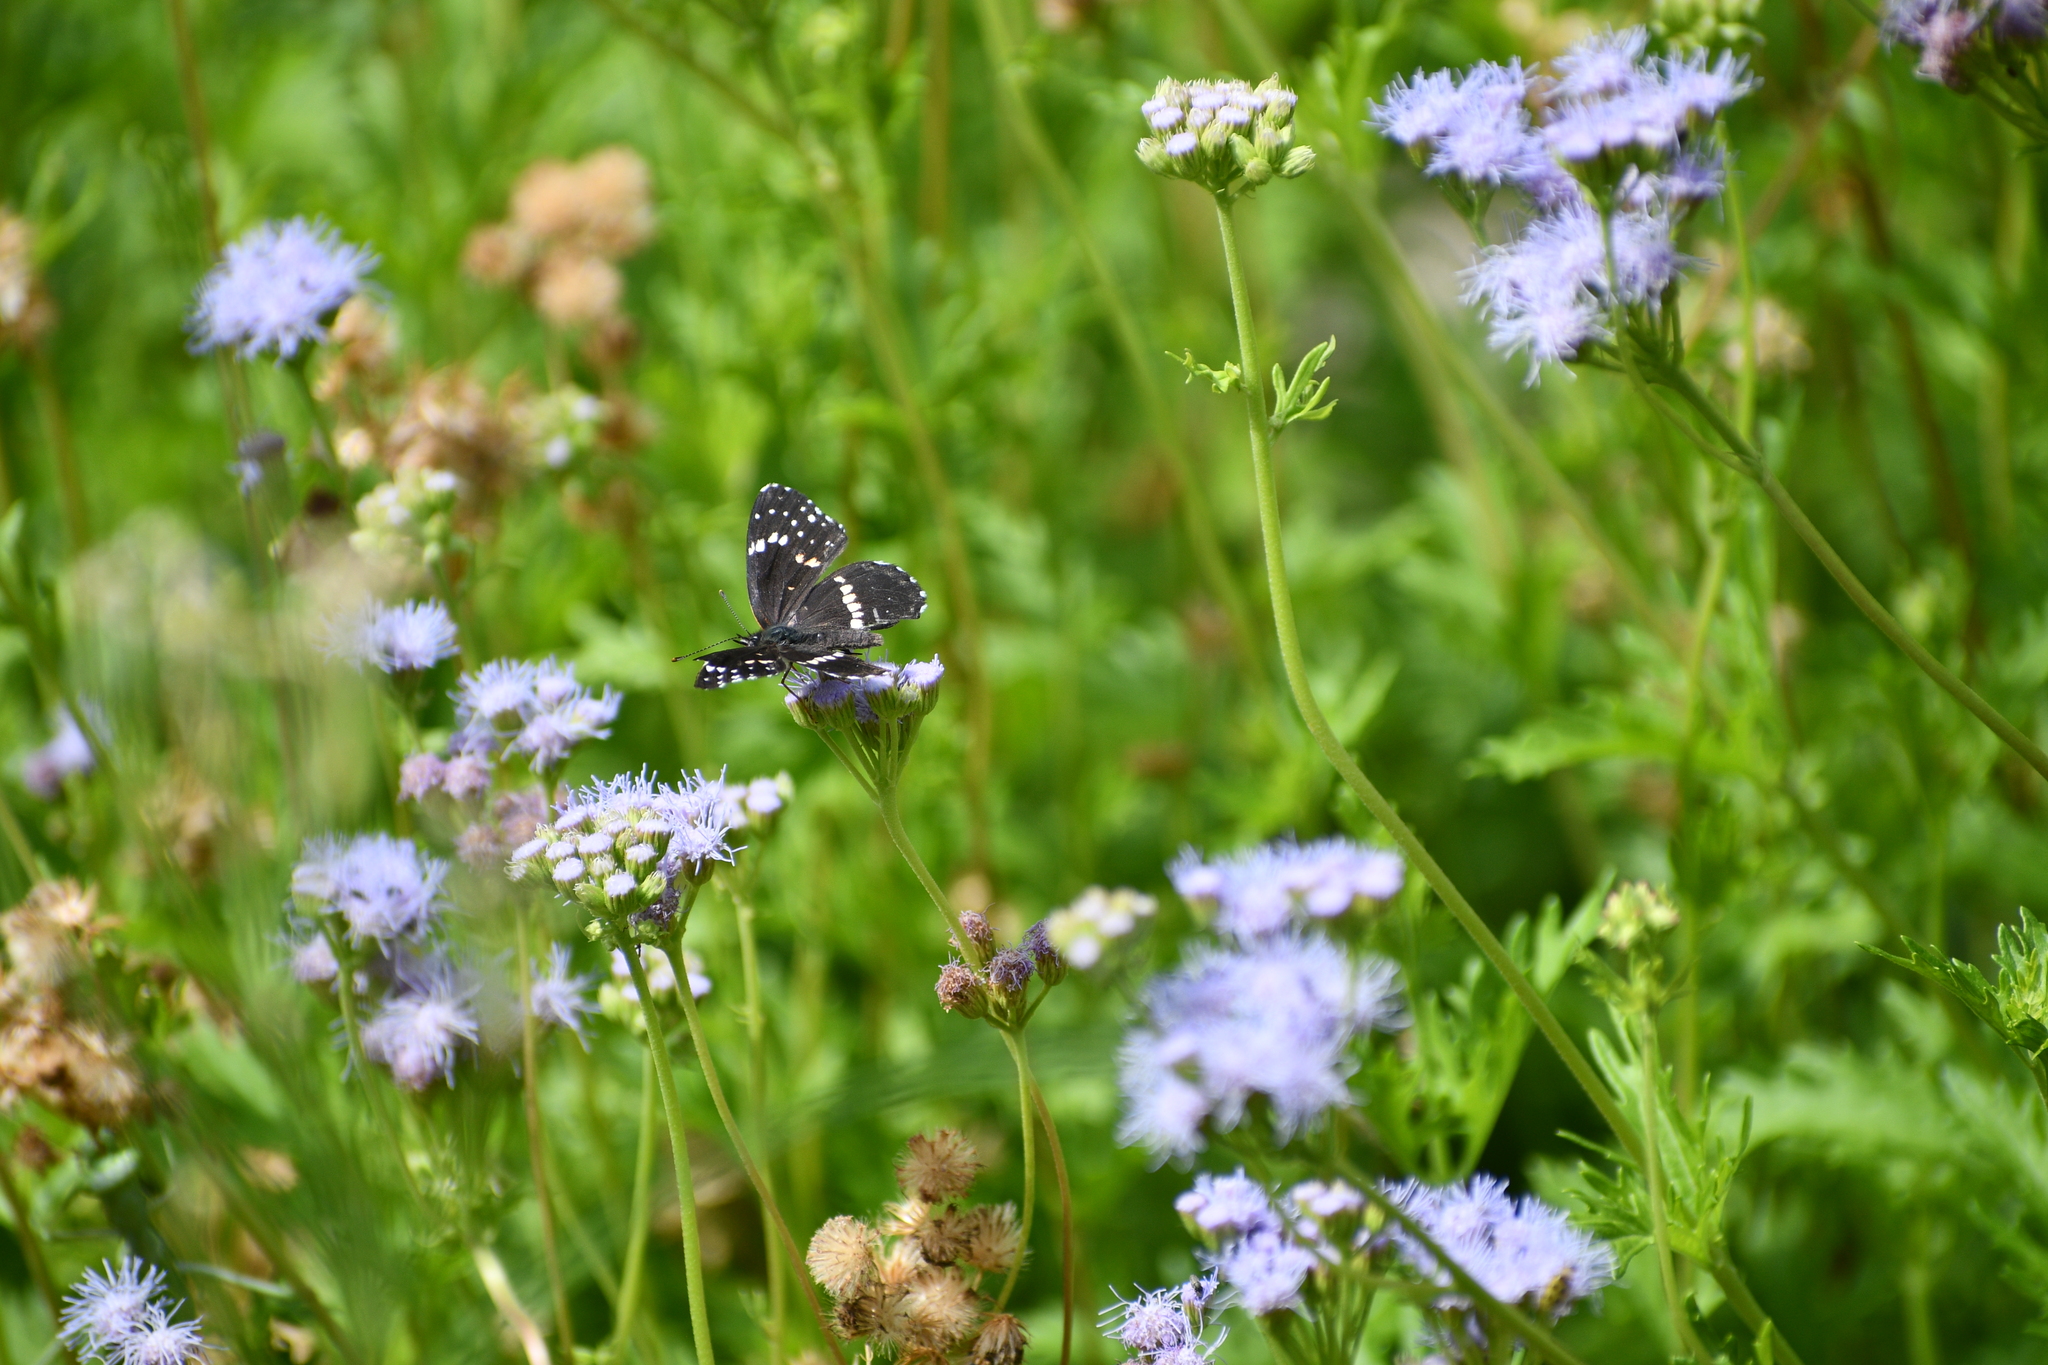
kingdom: Animalia
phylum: Arthropoda
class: Insecta
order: Lepidoptera
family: Nymphalidae
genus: Chlosyne
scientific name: Chlosyne lacinia
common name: Bordered patch
